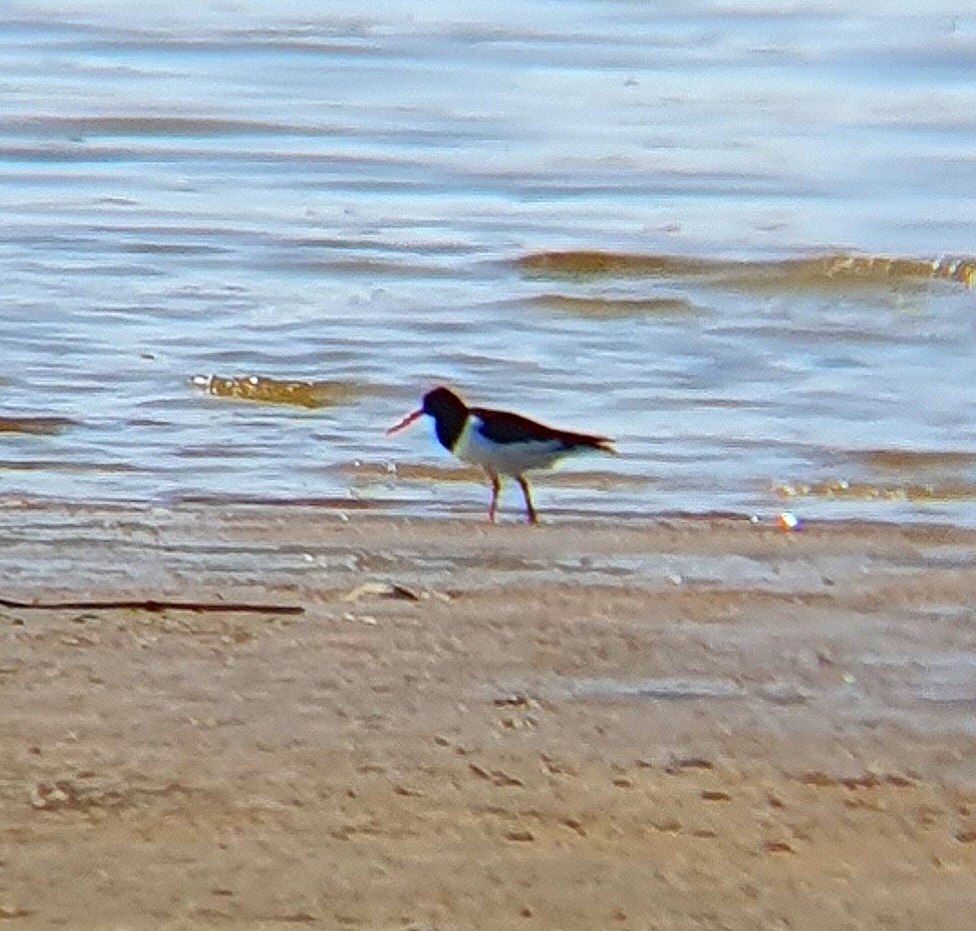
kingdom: Animalia
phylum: Chordata
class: Aves
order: Charadriiformes
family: Haematopodidae
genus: Haematopus
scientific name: Haematopus ostralegus
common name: Eurasian oystercatcher
